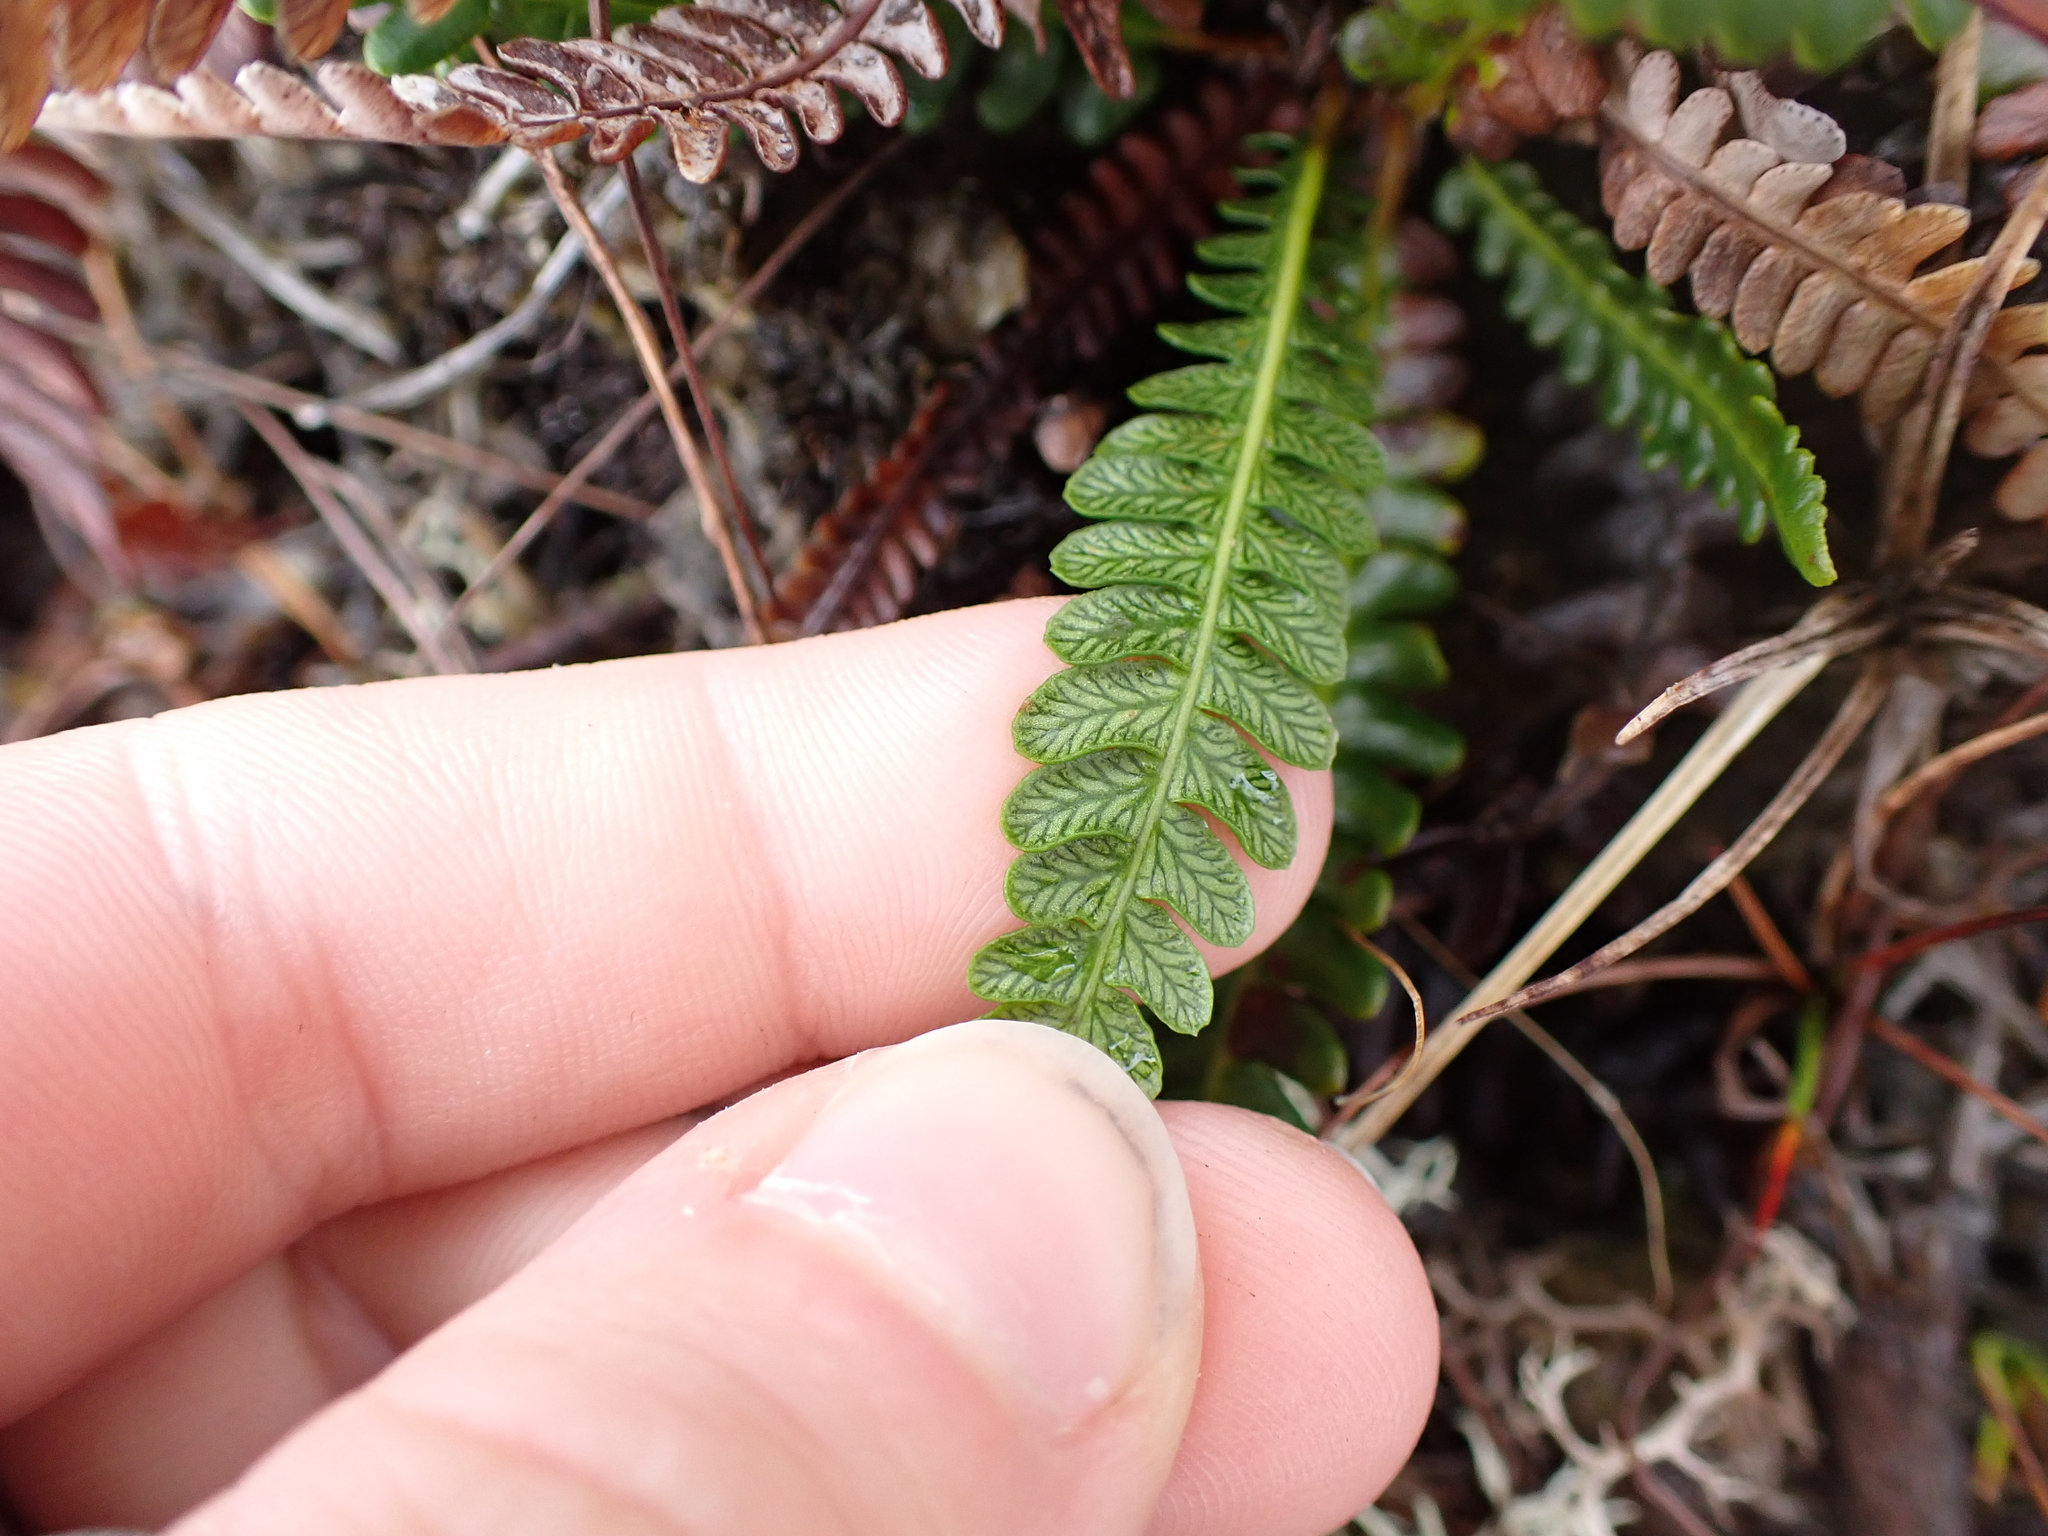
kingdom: Plantae
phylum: Tracheophyta
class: Polypodiopsida
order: Polypodiales
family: Blechnaceae
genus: Struthiopteris
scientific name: Struthiopteris spicant
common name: Deer fern
